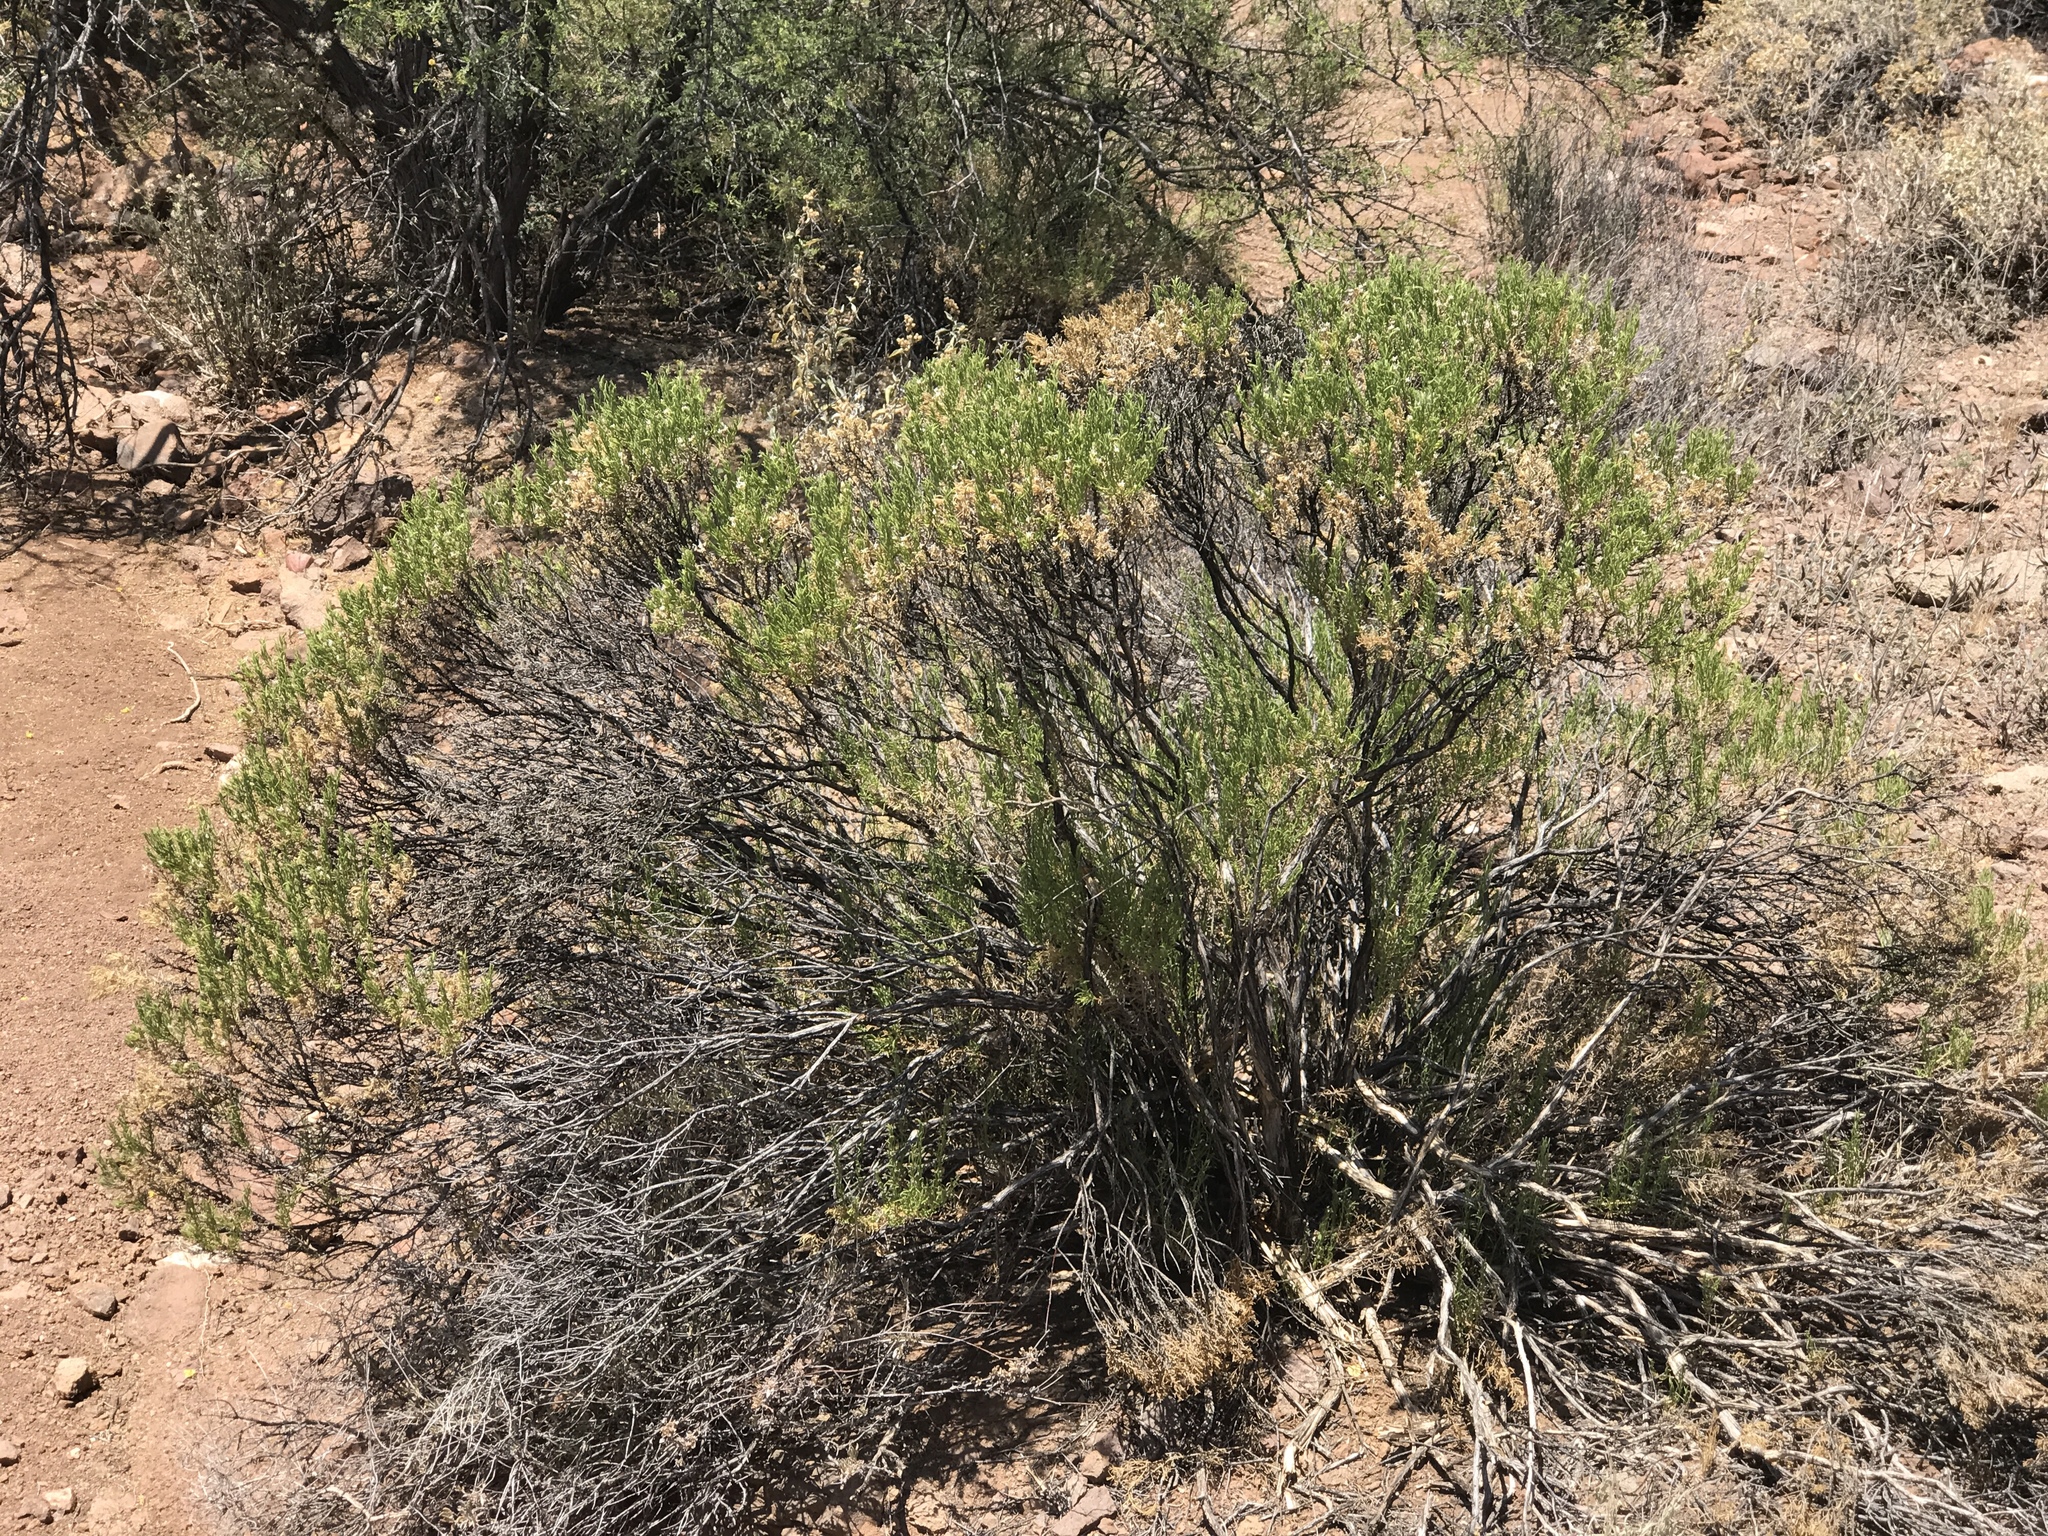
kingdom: Plantae
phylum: Tracheophyta
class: Magnoliopsida
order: Asterales
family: Asteraceae
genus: Ericameria
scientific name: Ericameria laricifolia
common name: Turpentine-bush
